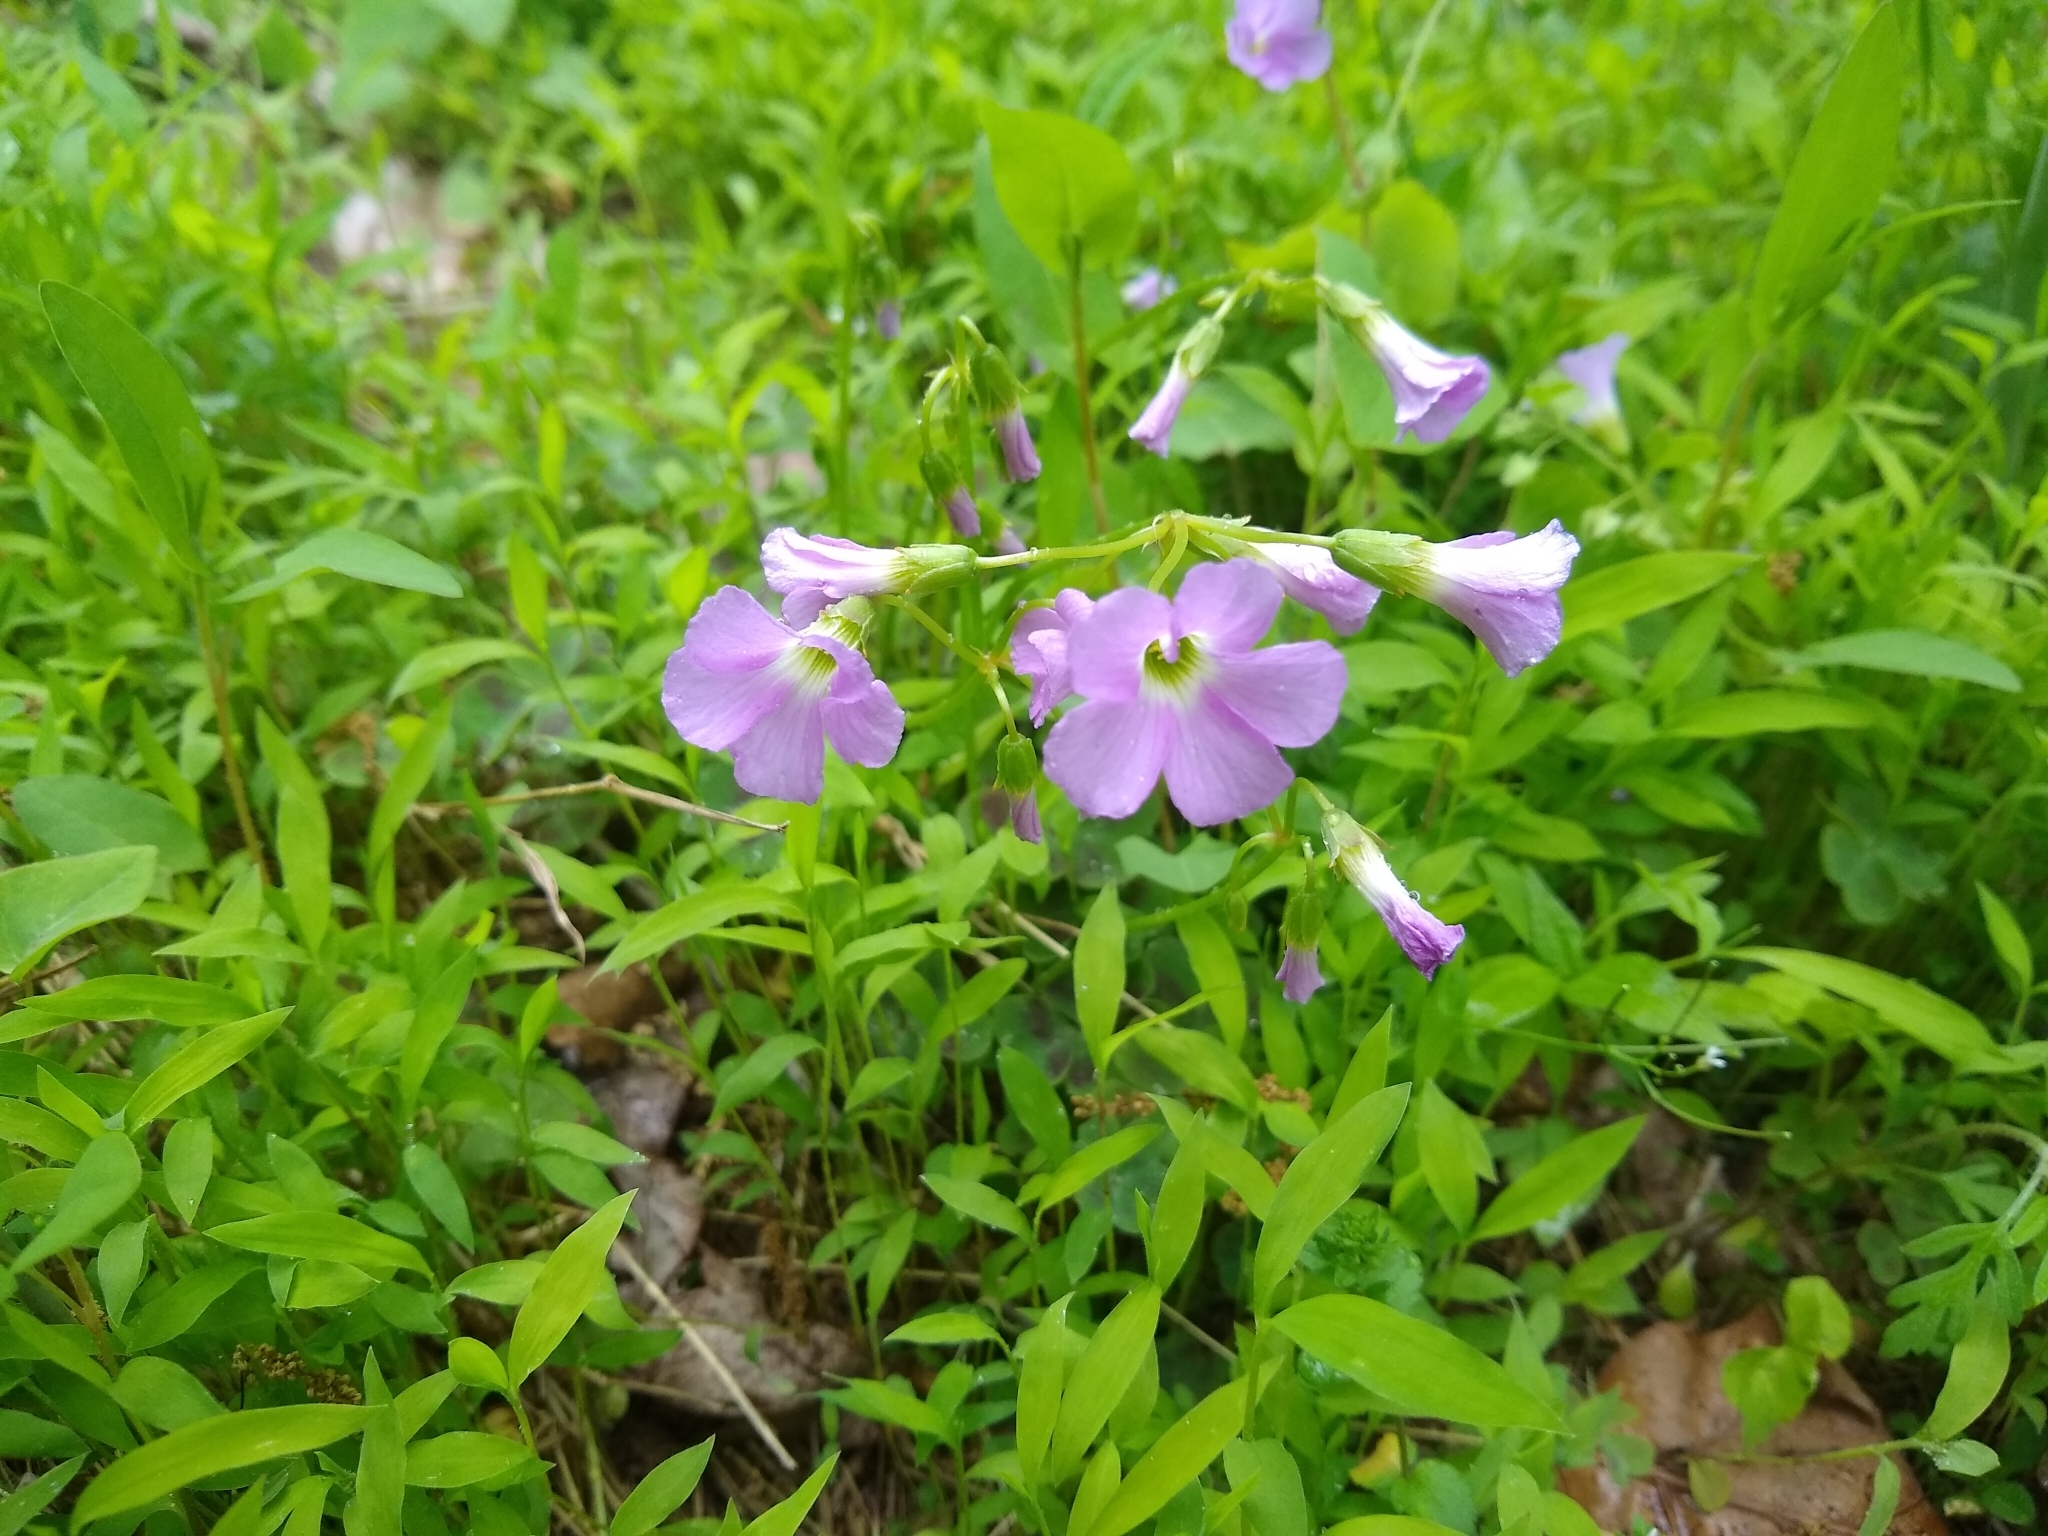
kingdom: Plantae
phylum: Tracheophyta
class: Magnoliopsida
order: Oxalidales
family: Oxalidaceae
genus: Oxalis
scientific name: Oxalis violacea
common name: Violet wood-sorrel
